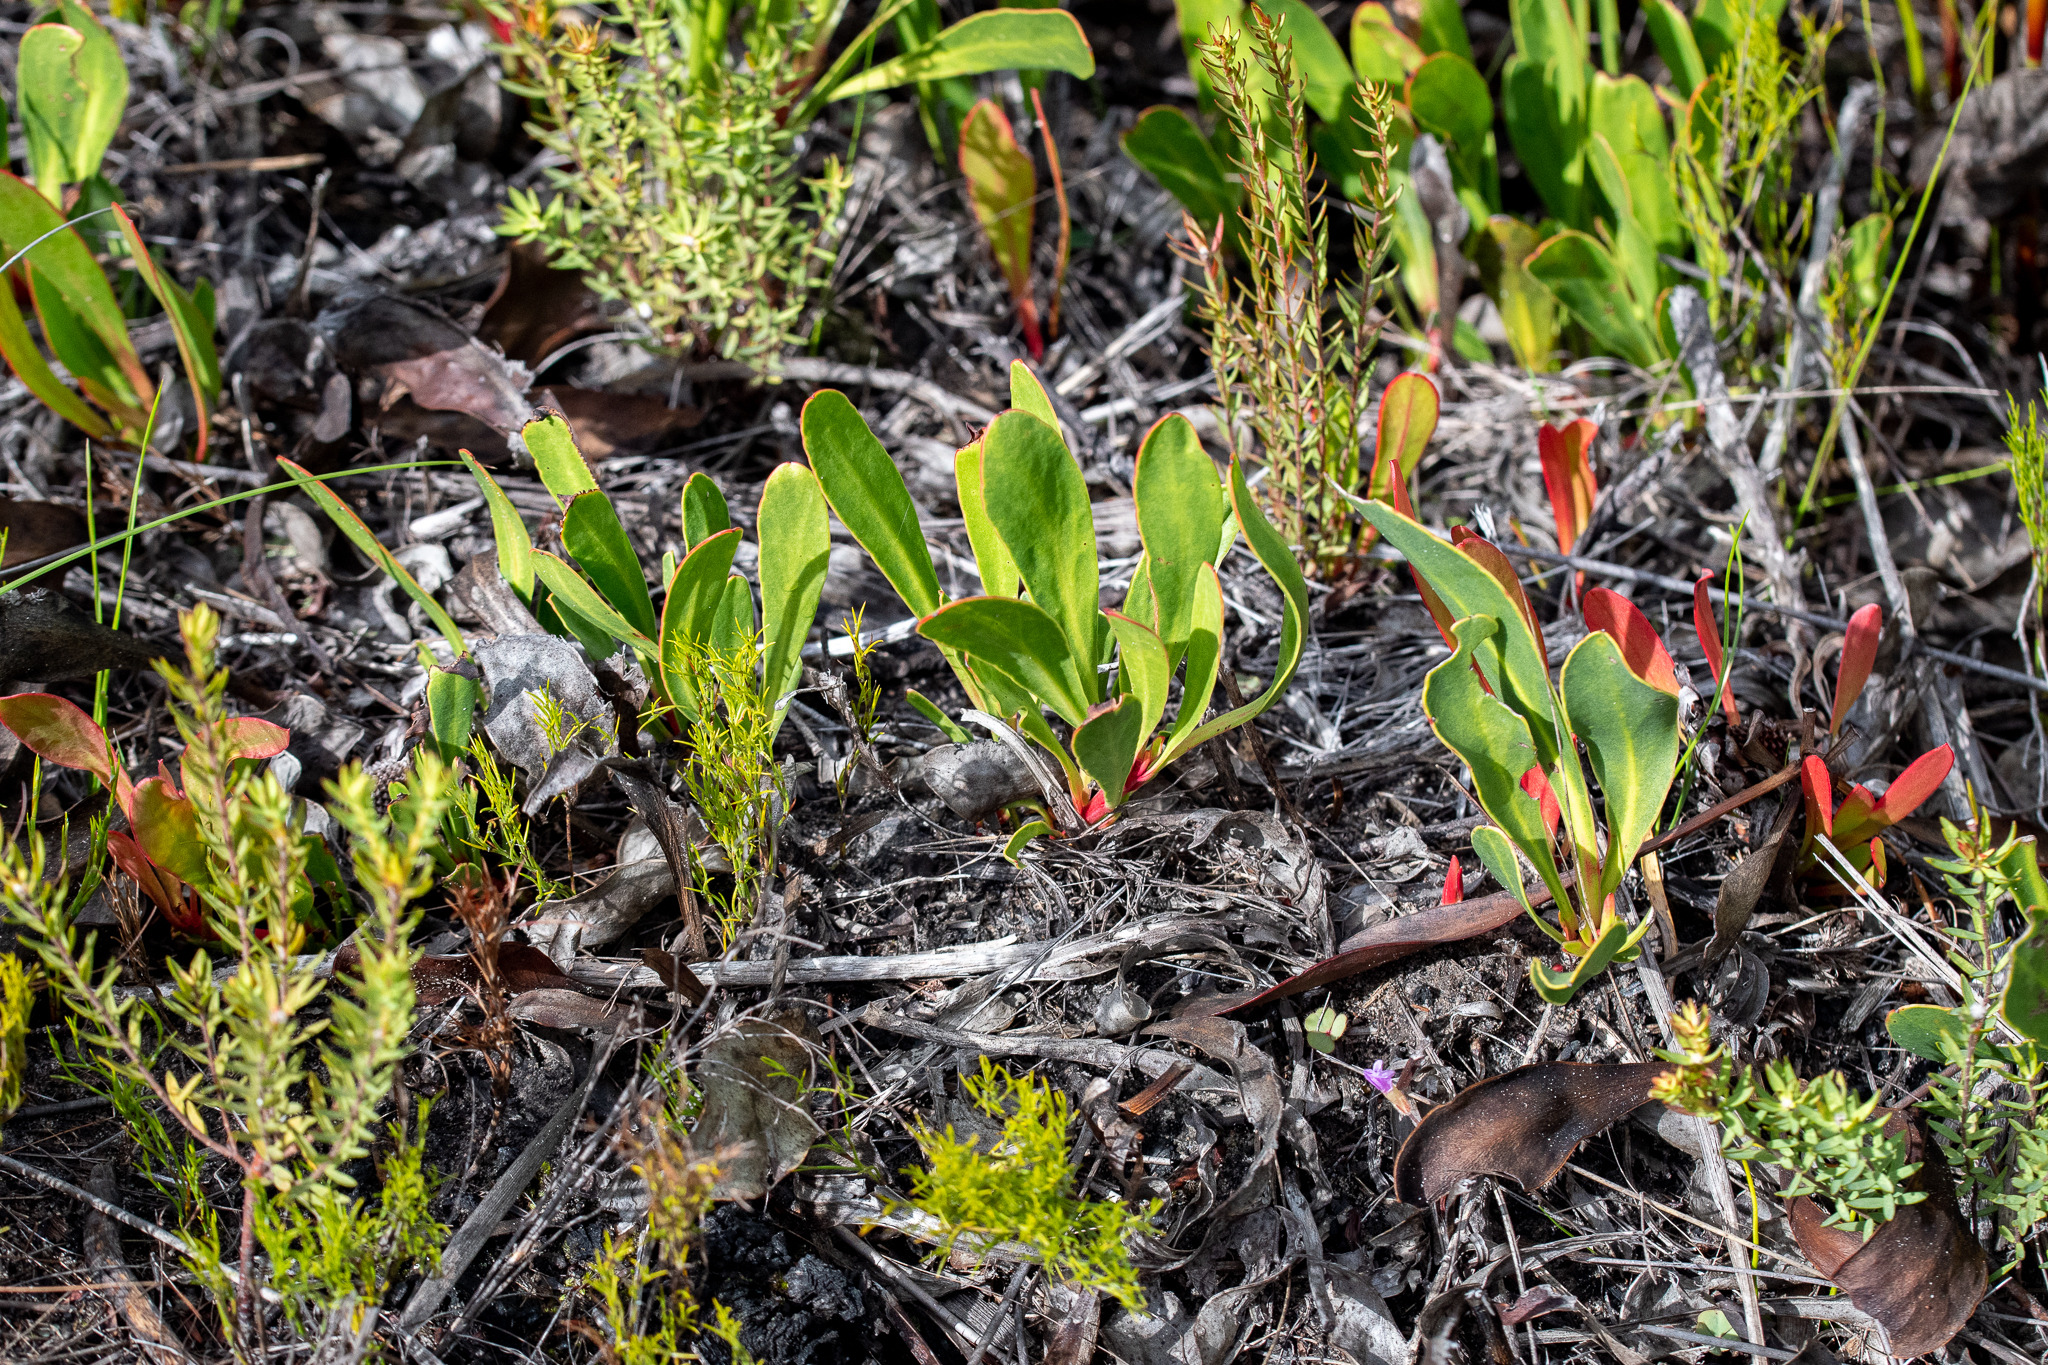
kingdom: Plantae
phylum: Tracheophyta
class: Magnoliopsida
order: Proteales
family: Proteaceae
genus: Protea
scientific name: Protea acaulos
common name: Common ground sugarbush
